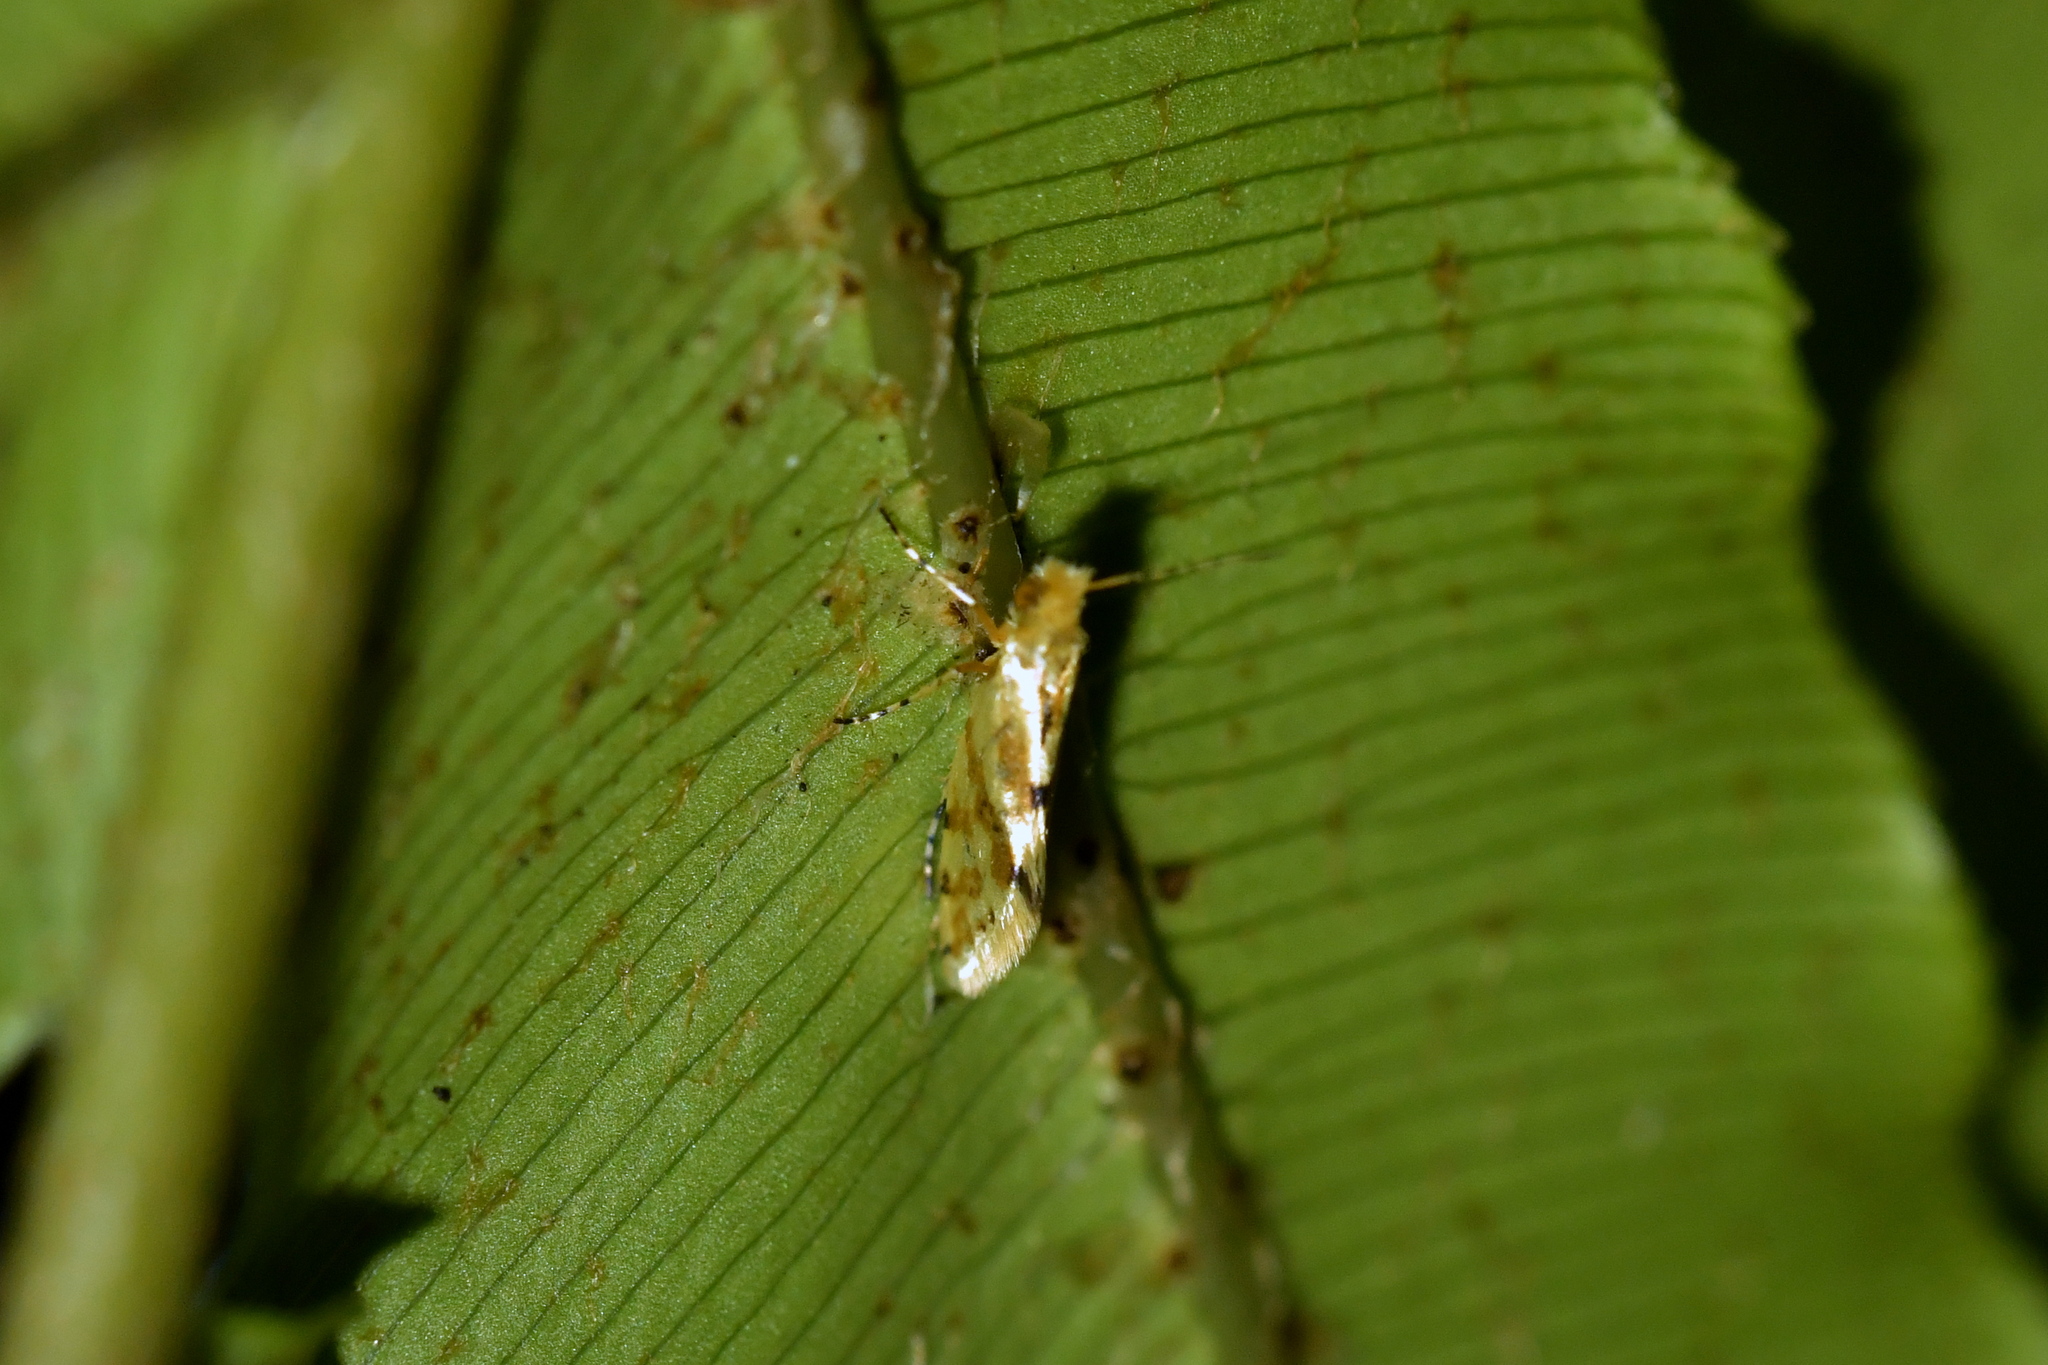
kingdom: Animalia
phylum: Arthropoda
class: Insecta
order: Lepidoptera
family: Micropterigidae
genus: Sabatinca
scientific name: Sabatinca chalcophanes
